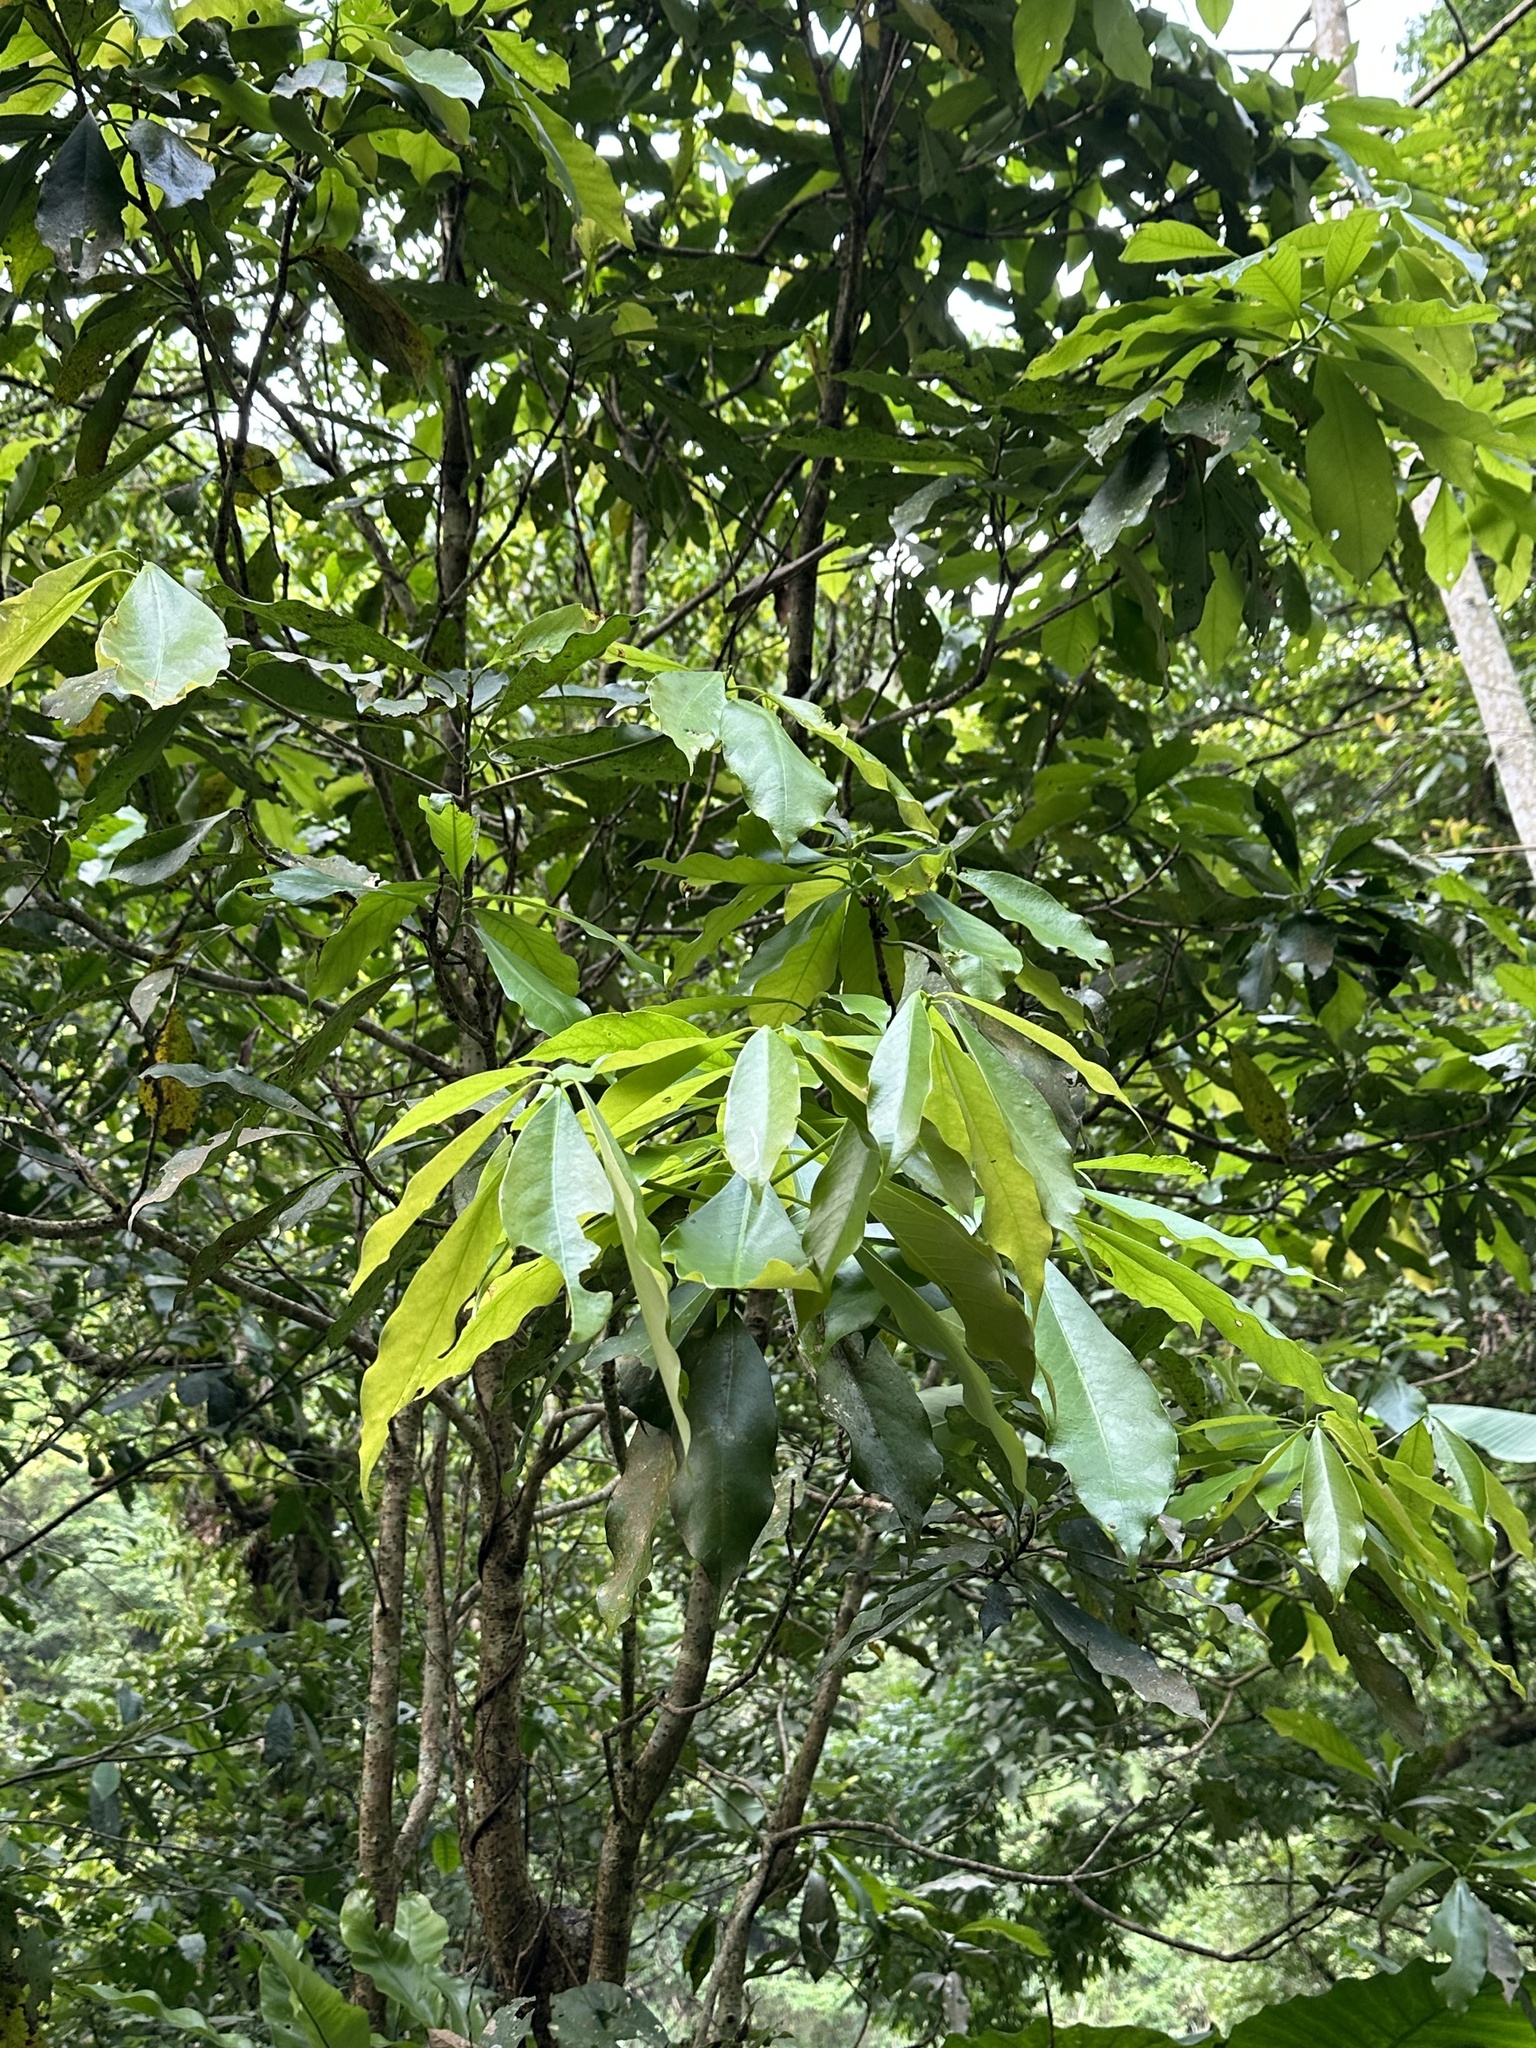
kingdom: Plantae
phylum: Tracheophyta
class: Magnoliopsida
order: Laurales
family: Lauraceae
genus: Machilus
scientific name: Machilus japonica
